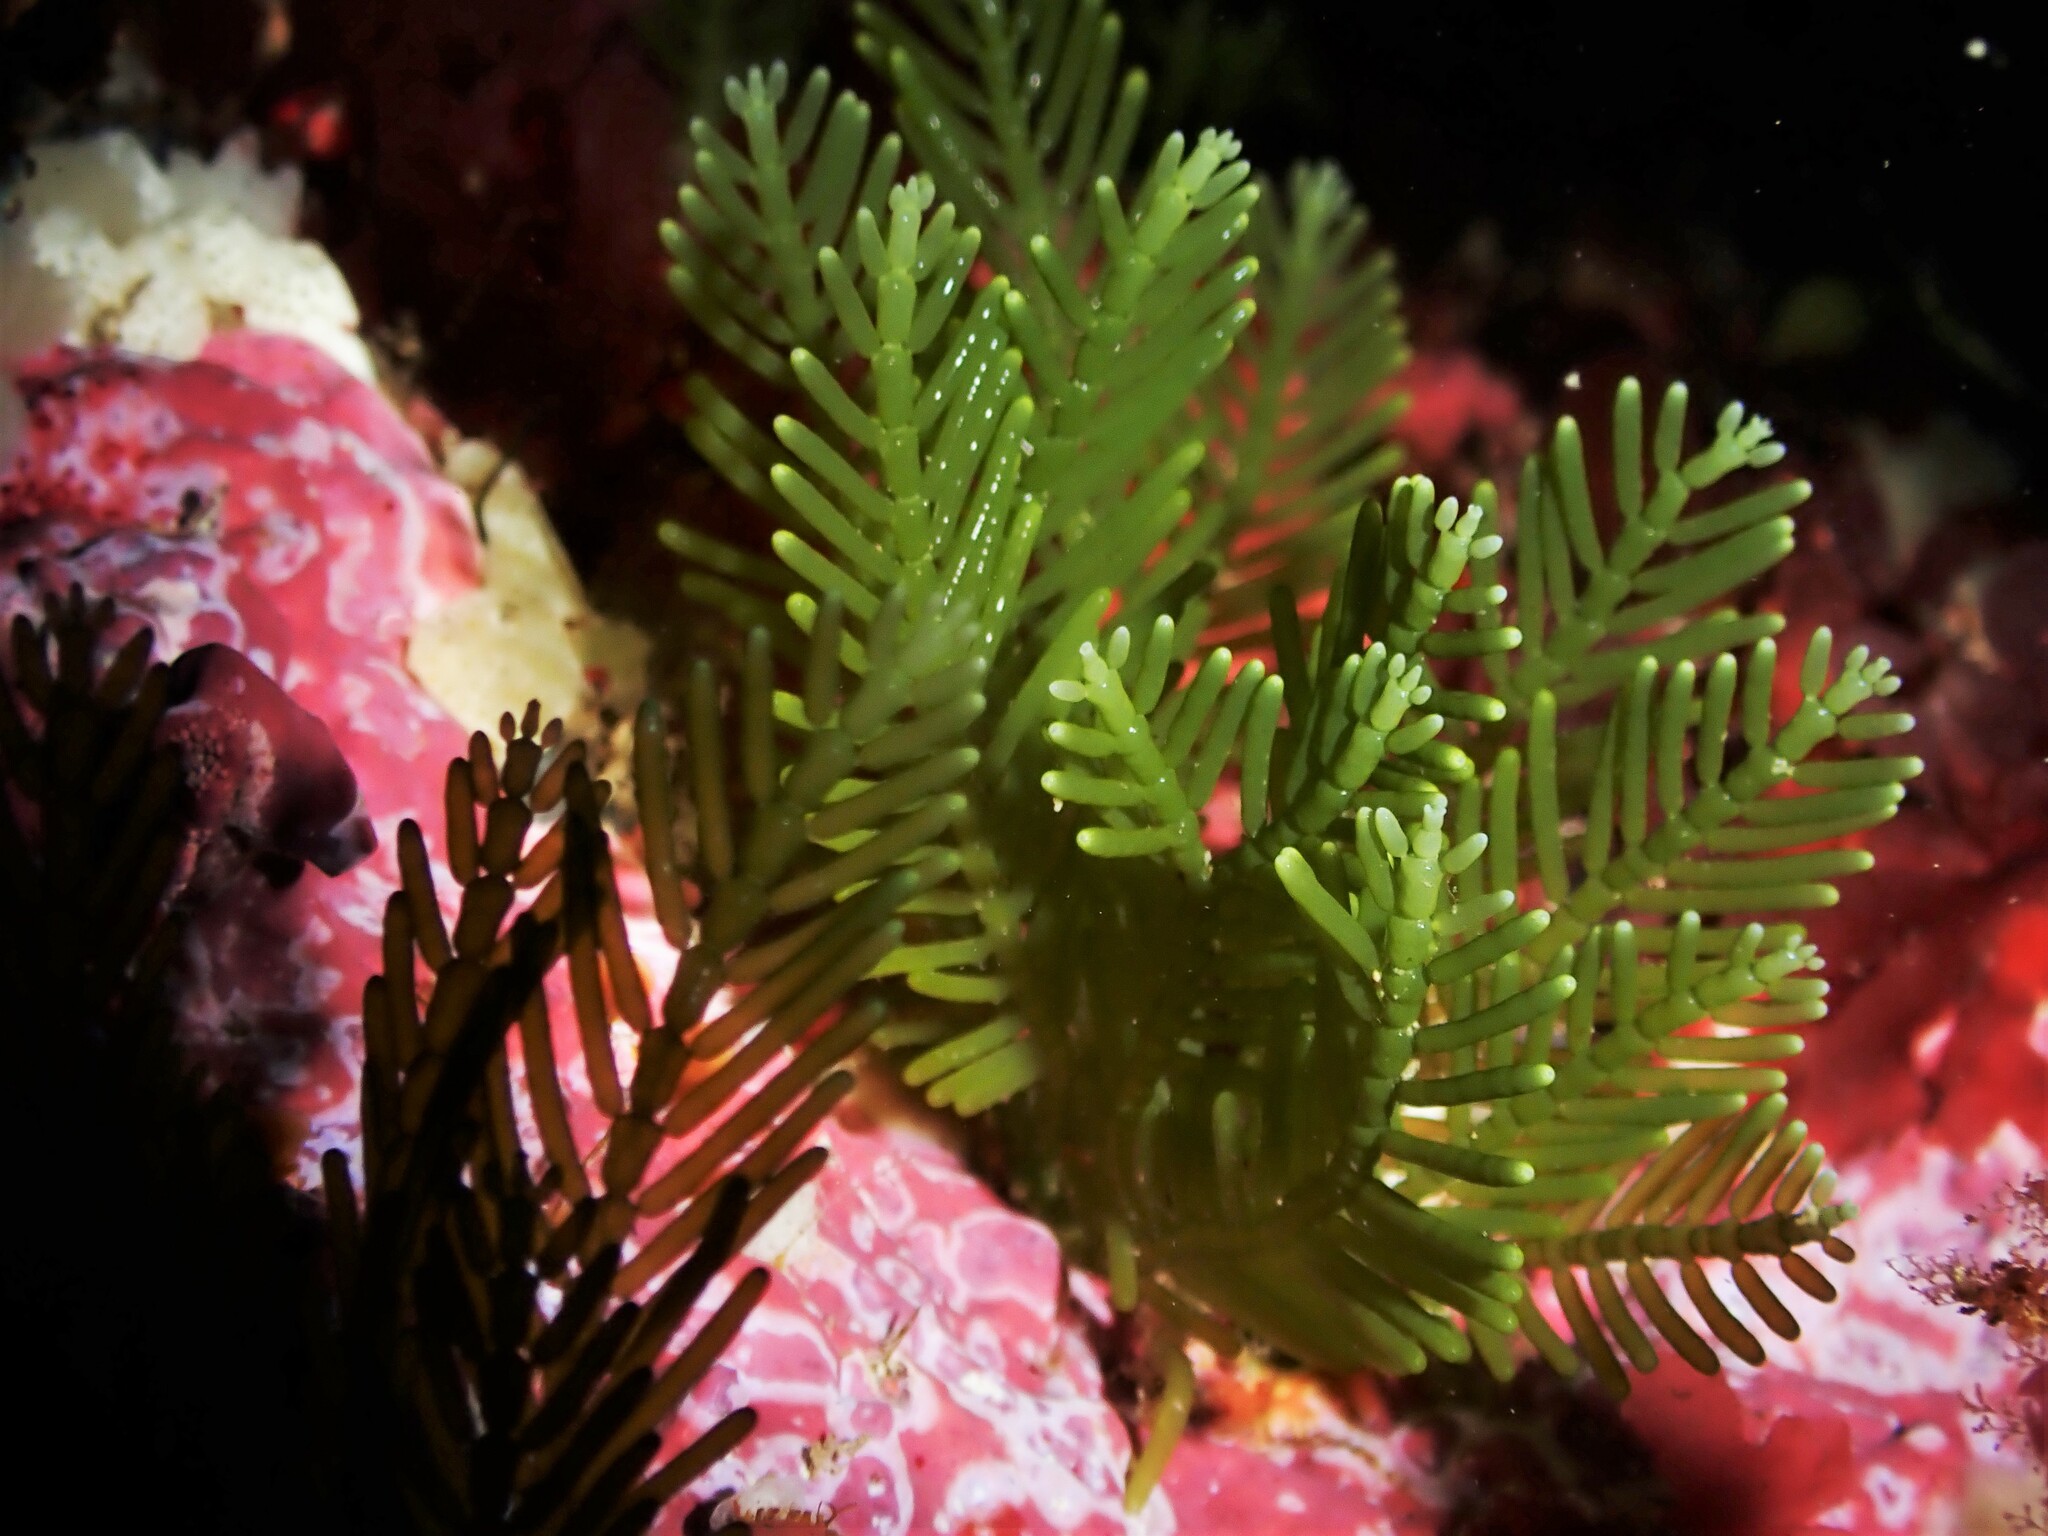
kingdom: Plantae
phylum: Chlorophyta
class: Ulvophyceae
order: Bryopsidales
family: Caulerpaceae
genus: Caulerpa
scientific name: Caulerpa articulata
